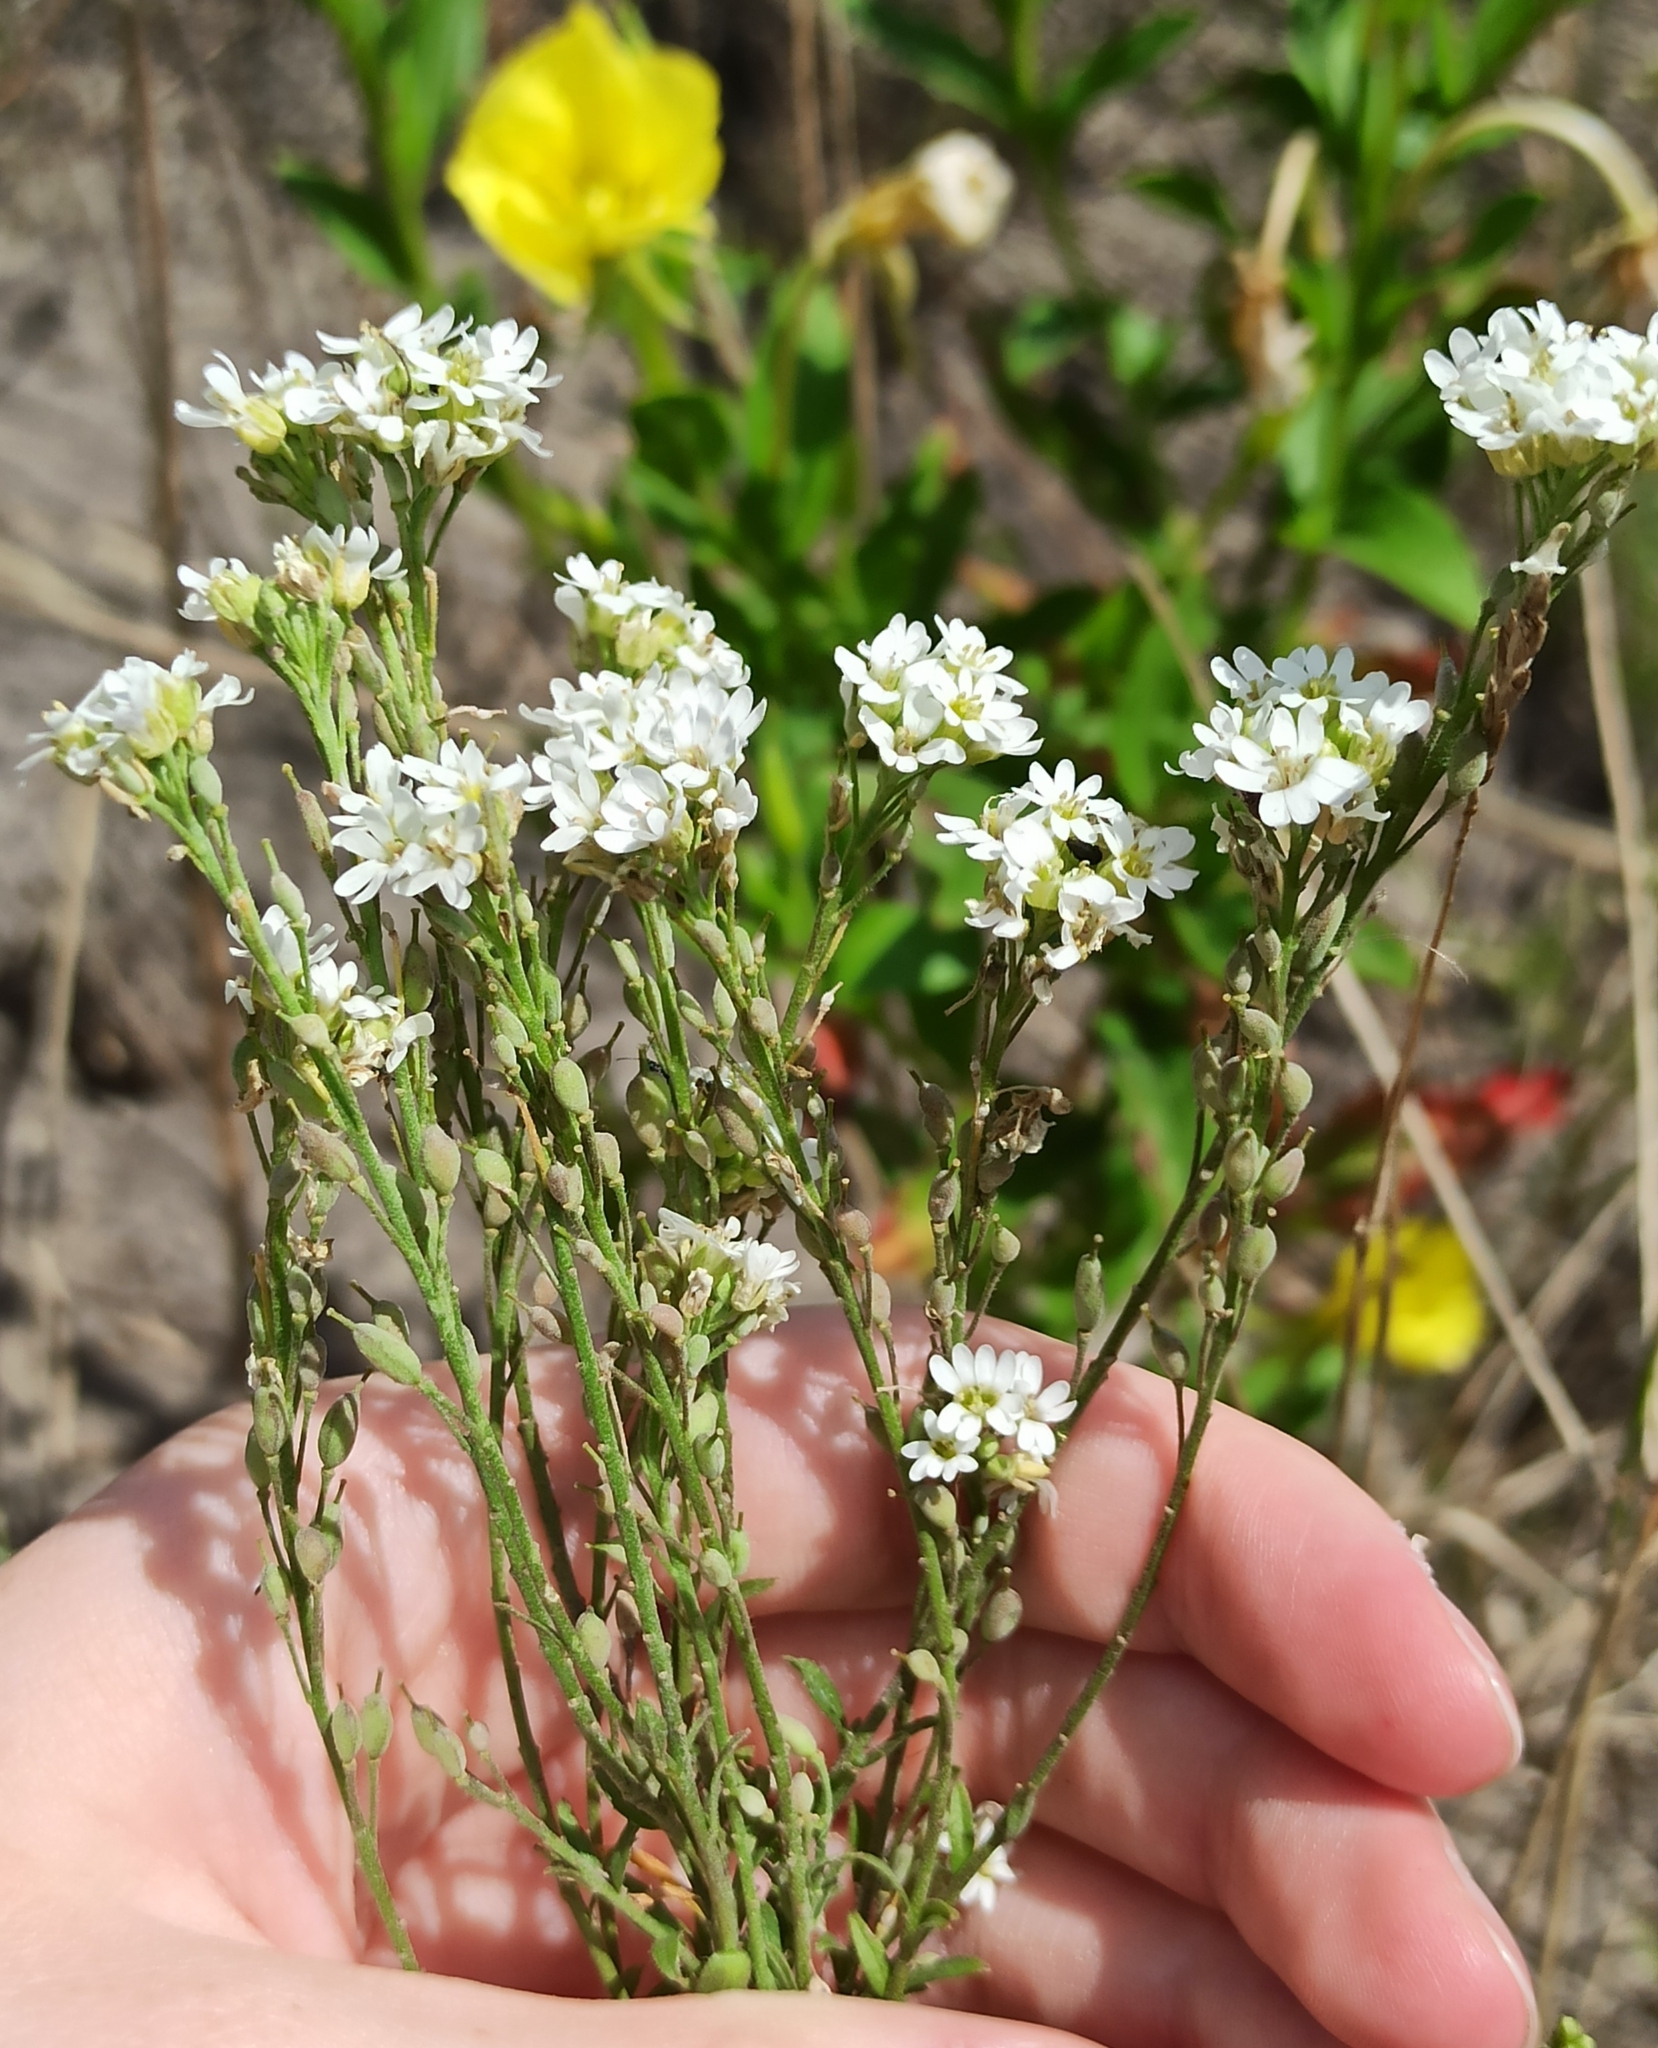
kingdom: Plantae
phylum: Tracheophyta
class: Magnoliopsida
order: Brassicales
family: Brassicaceae
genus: Berteroa
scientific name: Berteroa incana
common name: Hoary alison
